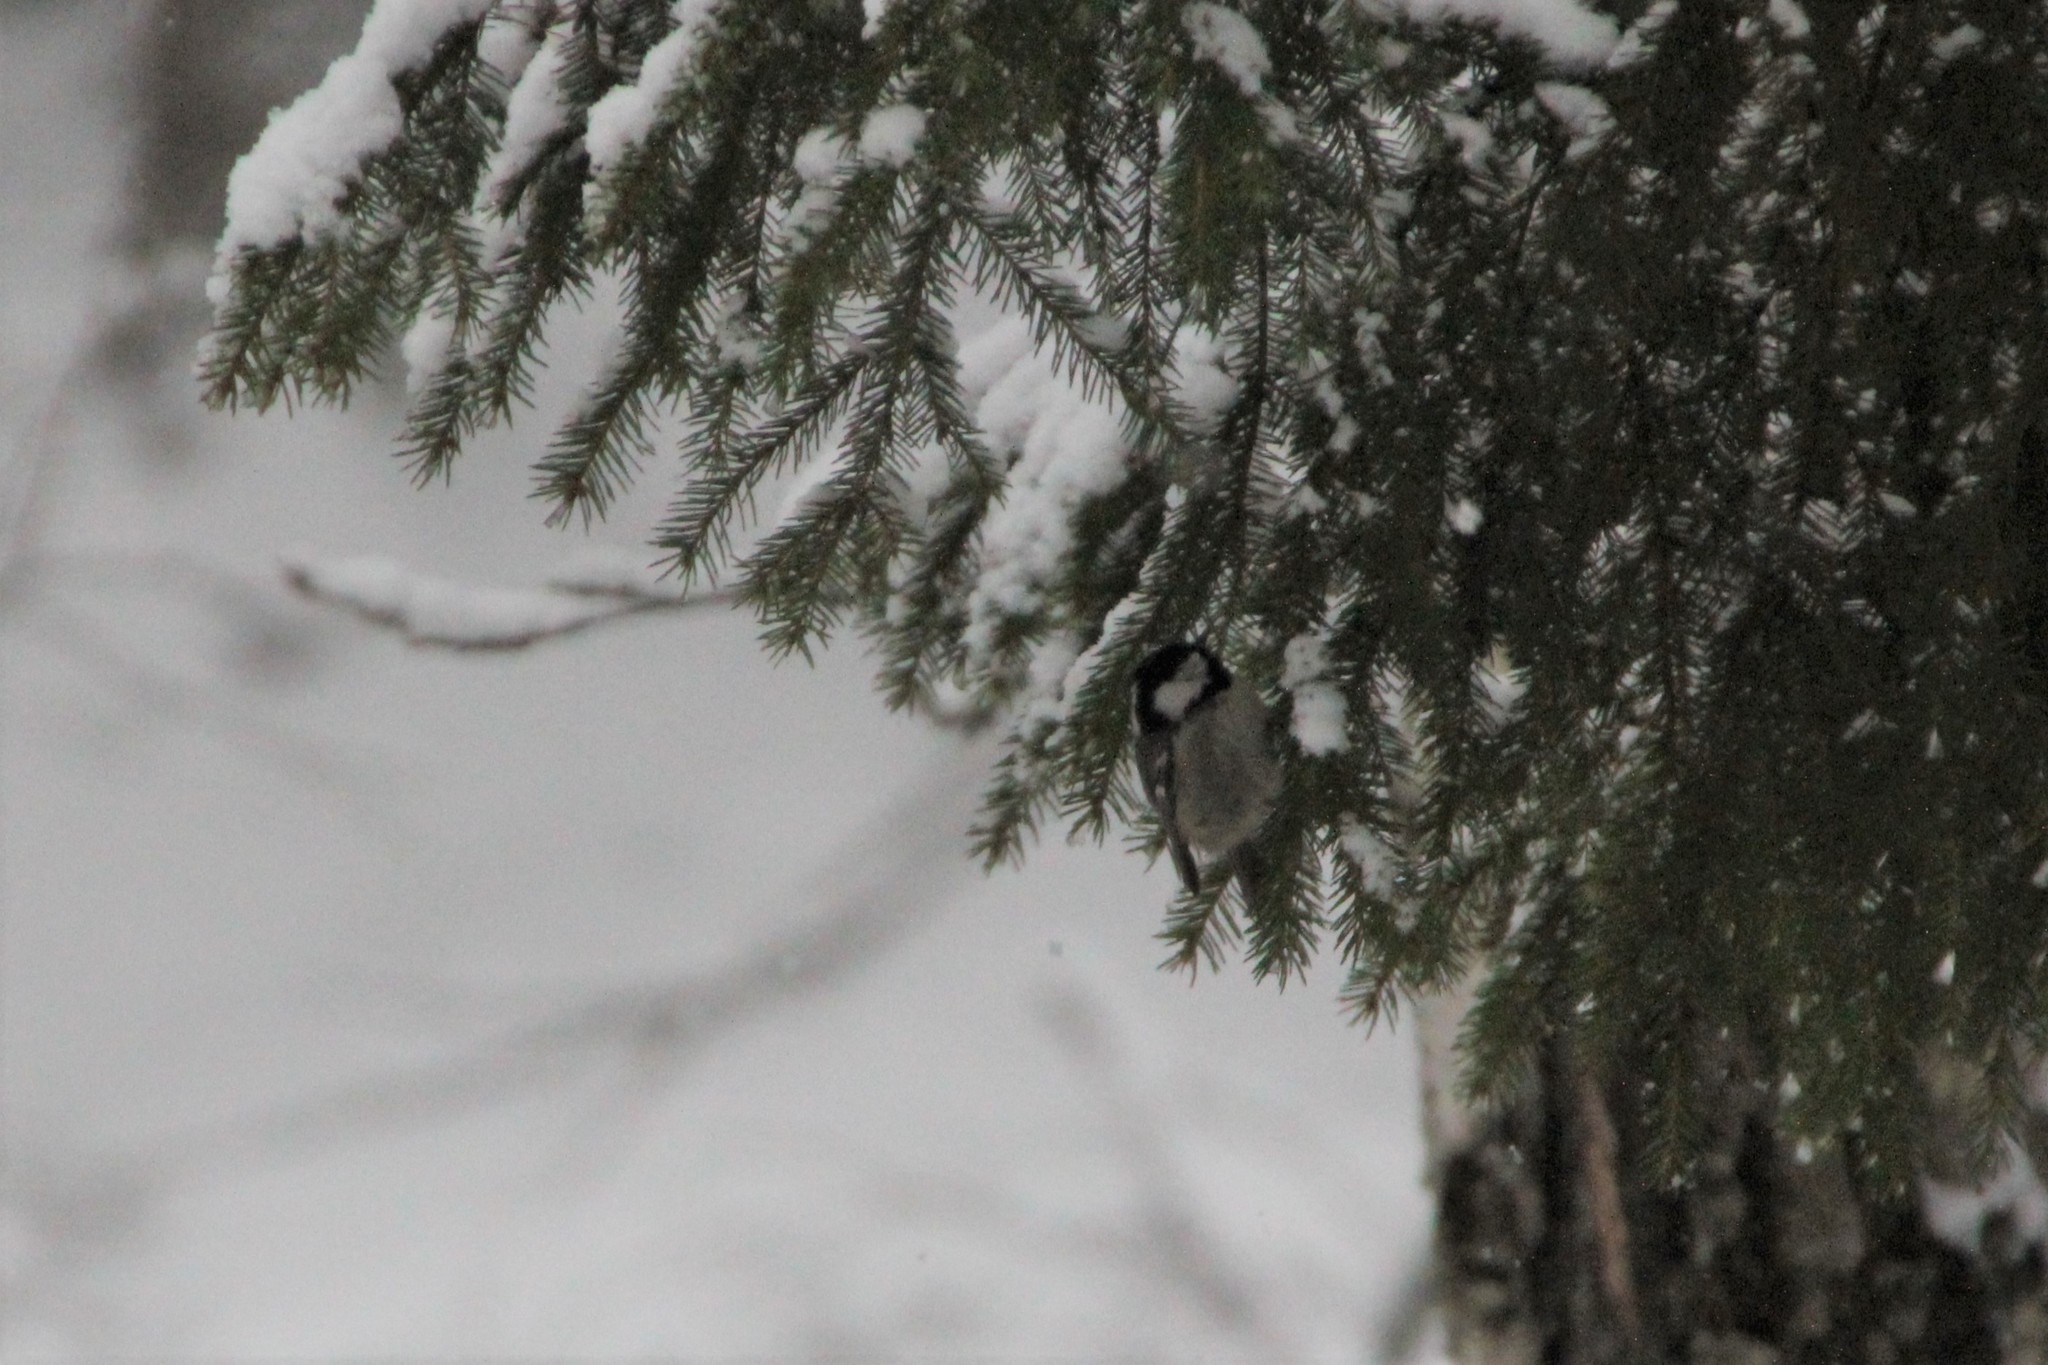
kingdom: Animalia
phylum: Chordata
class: Aves
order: Passeriformes
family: Paridae
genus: Periparus
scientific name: Periparus ater
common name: Coal tit
